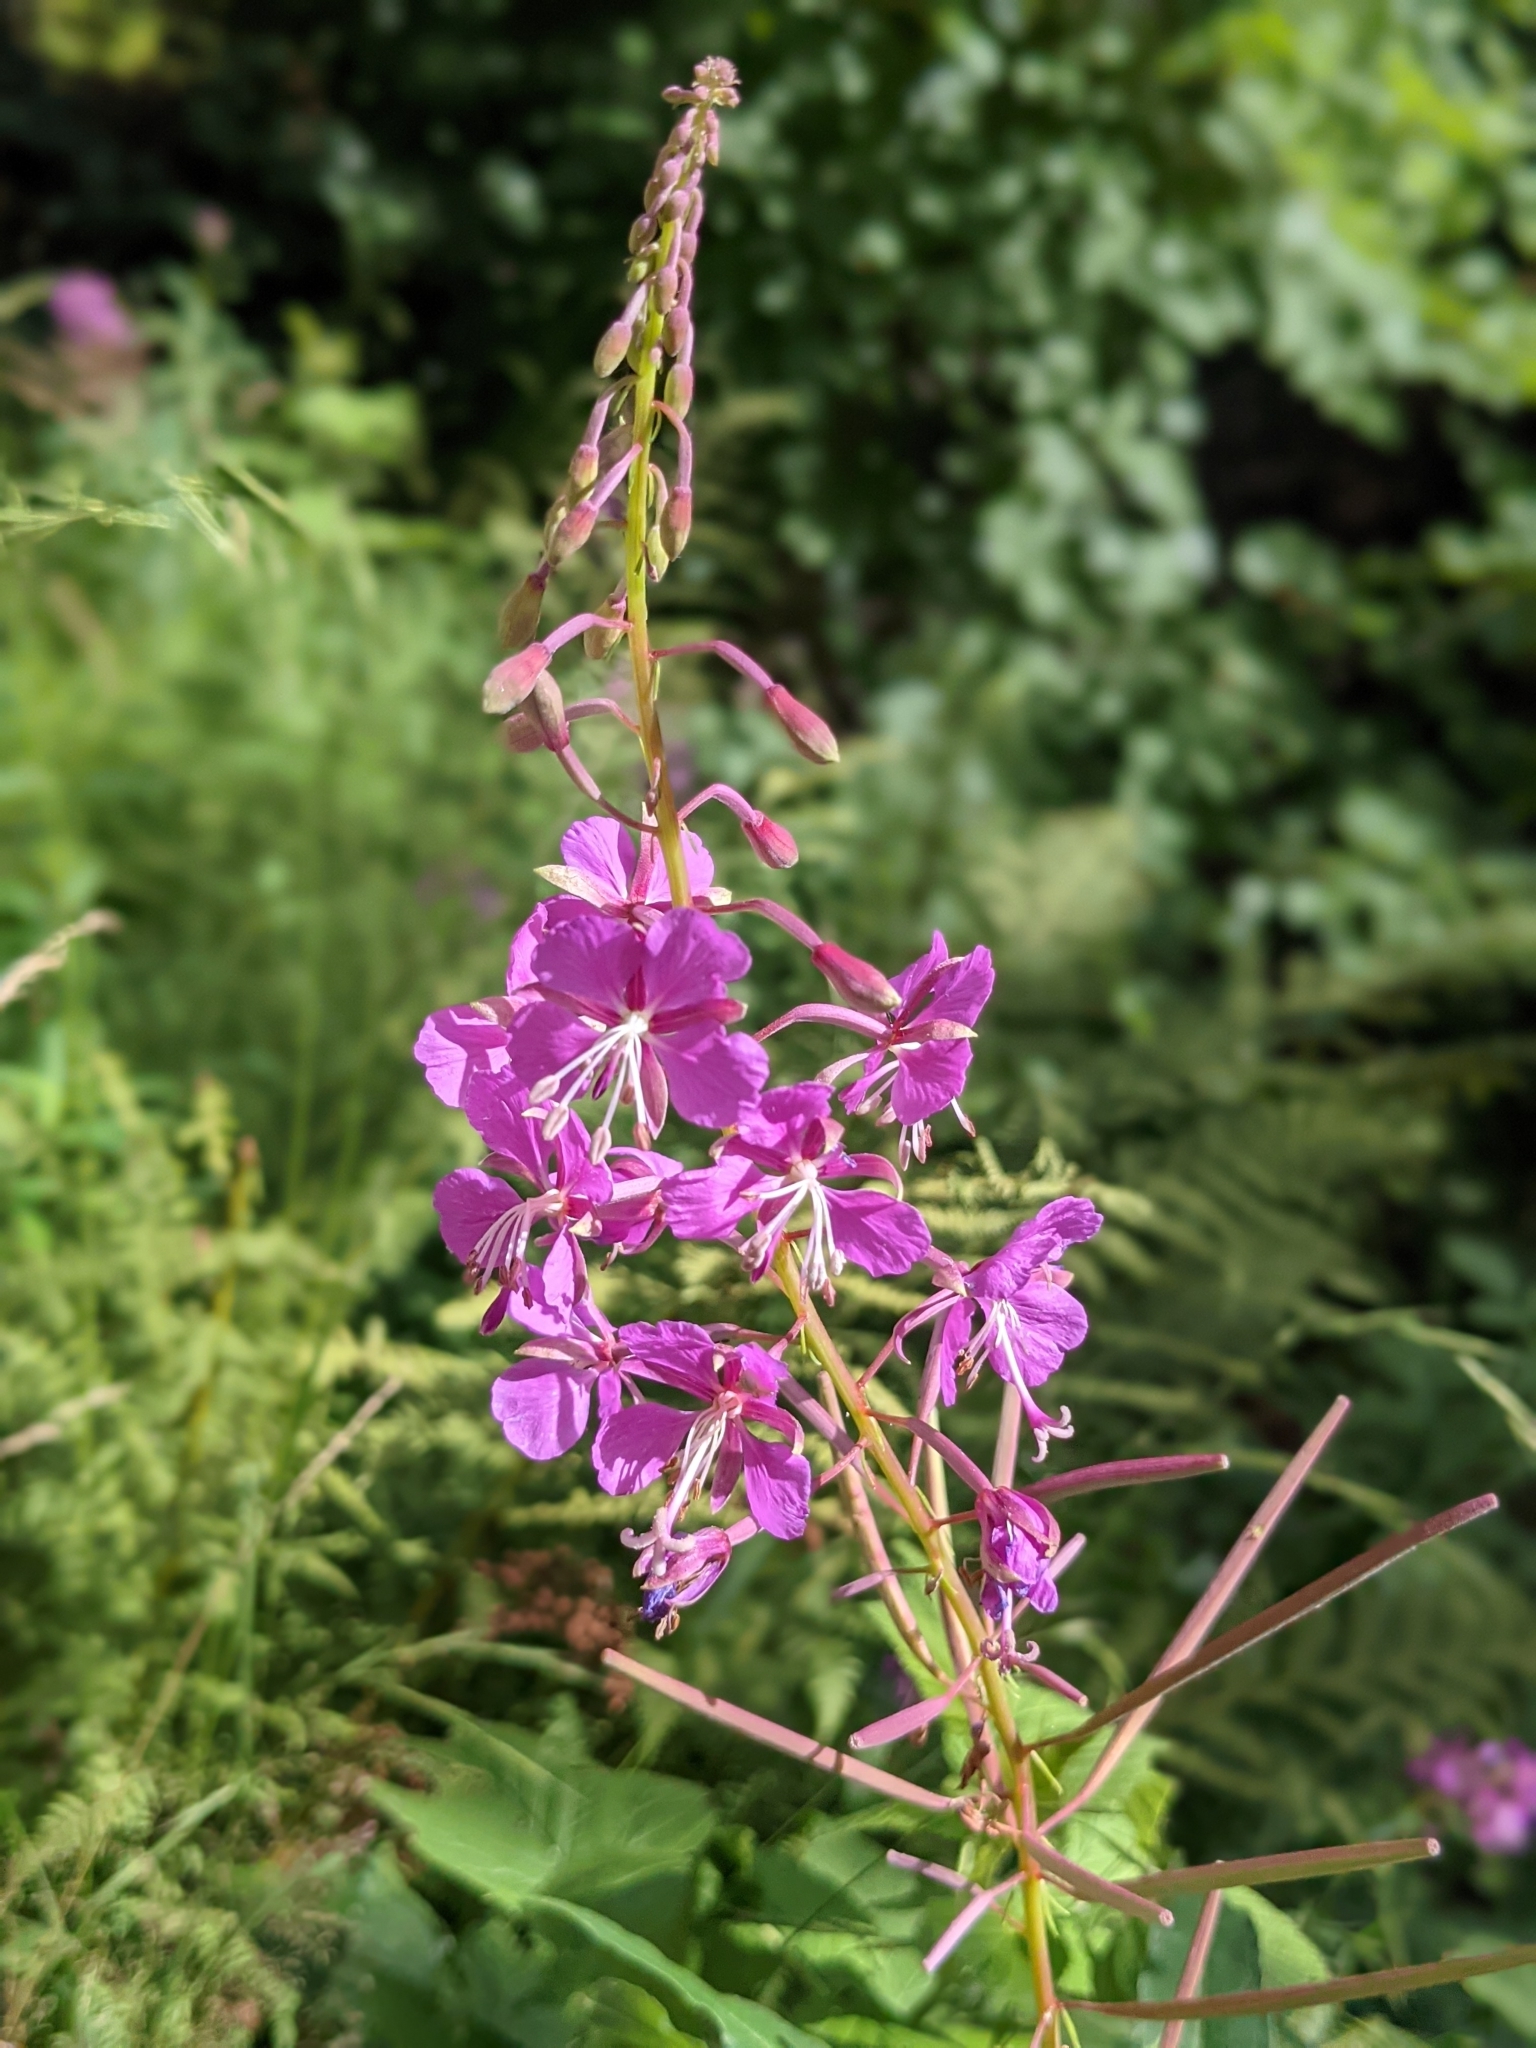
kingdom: Plantae
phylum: Tracheophyta
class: Magnoliopsida
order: Myrtales
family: Onagraceae
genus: Chamaenerion
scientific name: Chamaenerion angustifolium
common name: Fireweed
